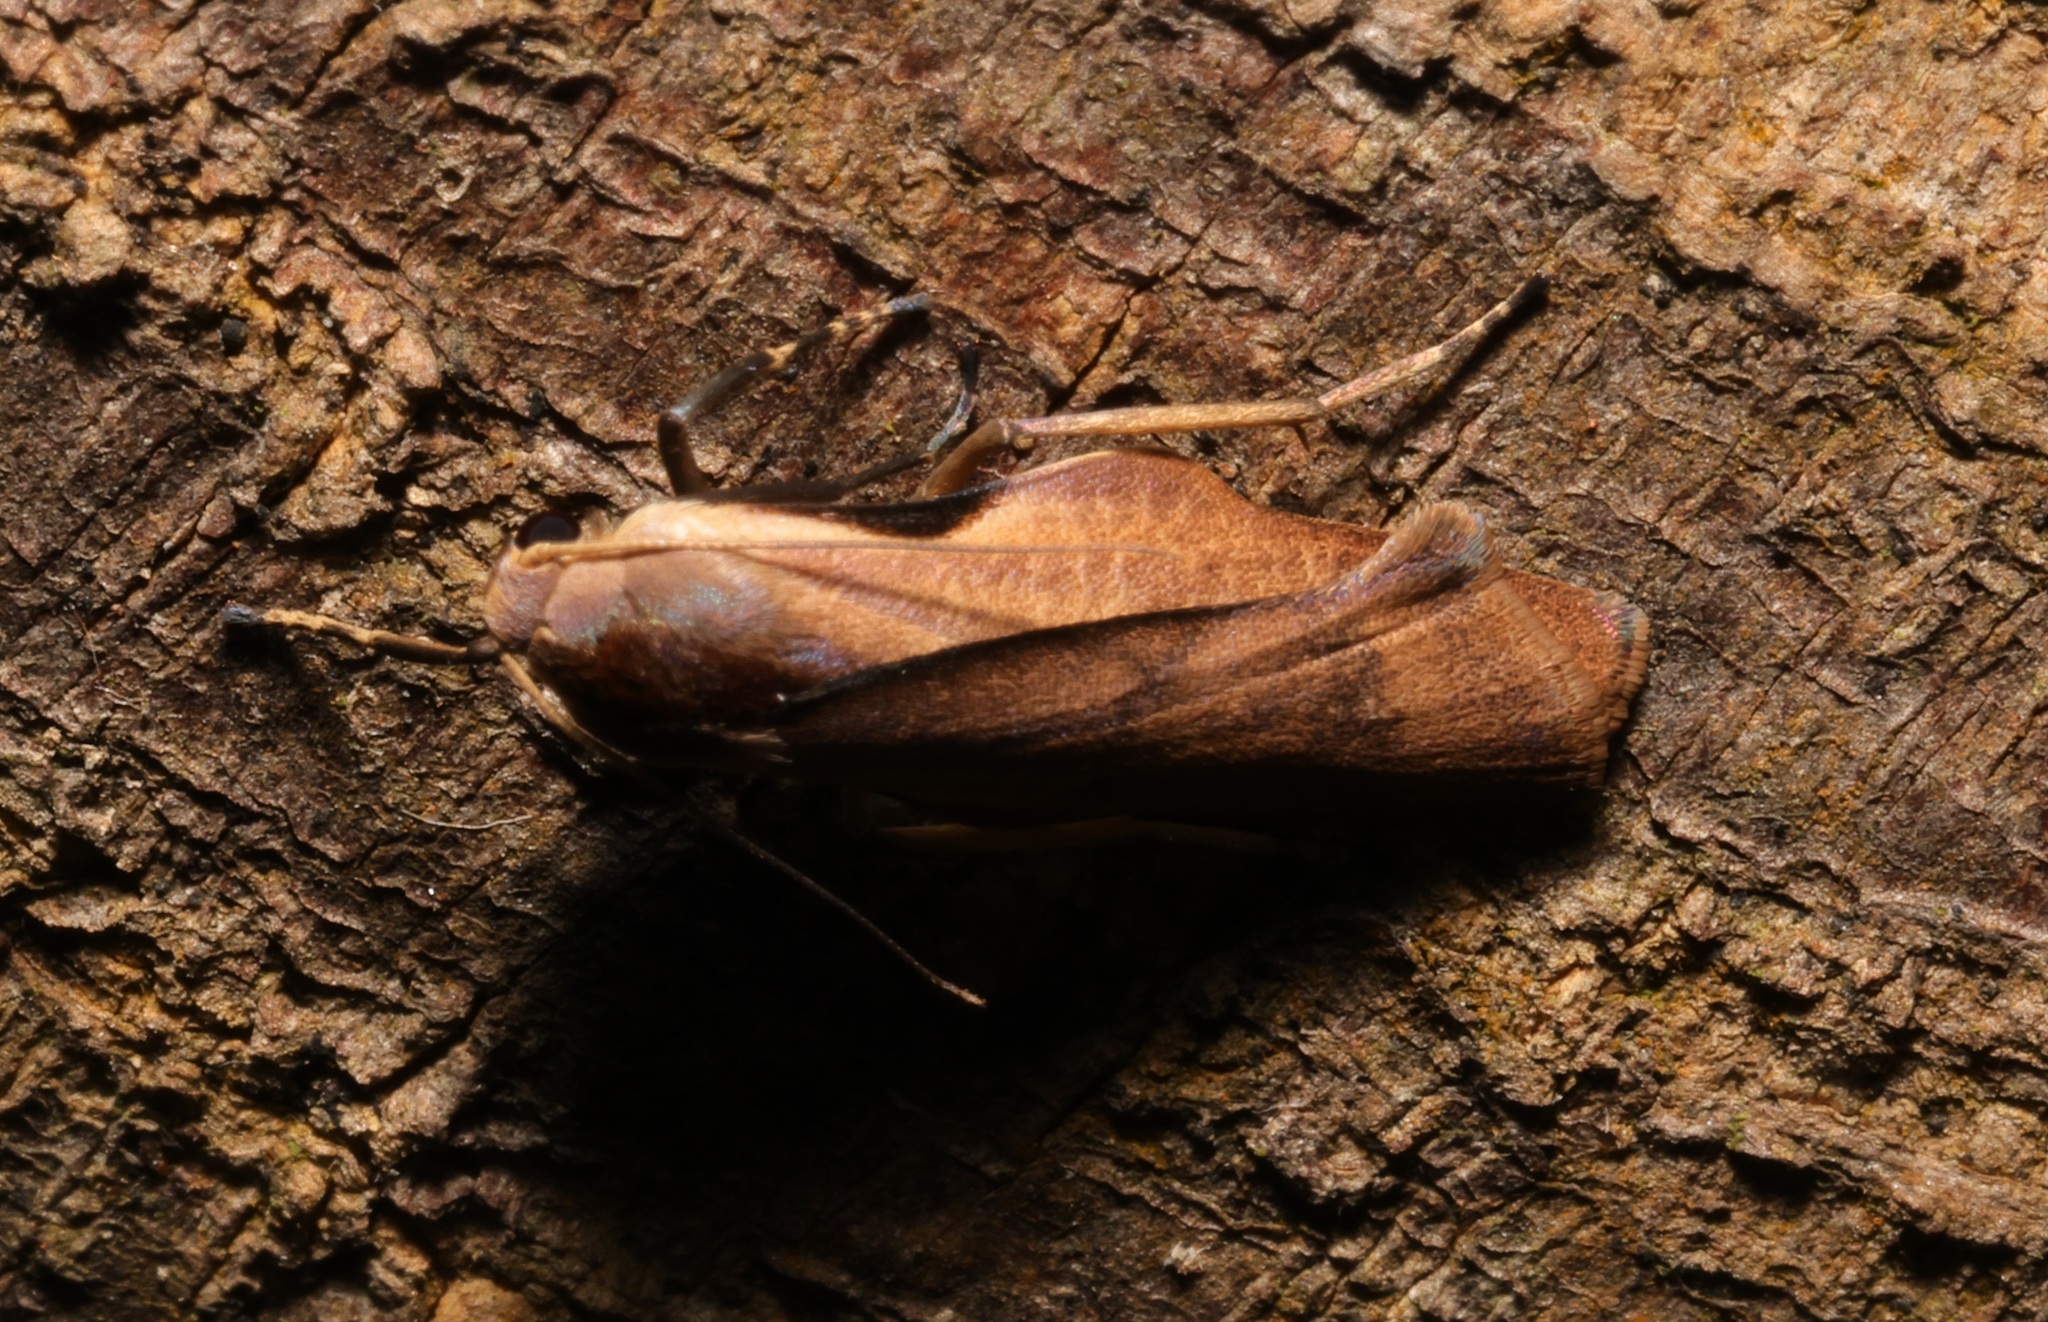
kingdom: Animalia
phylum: Arthropoda
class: Insecta
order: Lepidoptera
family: Erebidae
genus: Teulisna
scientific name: Teulisna tumida
